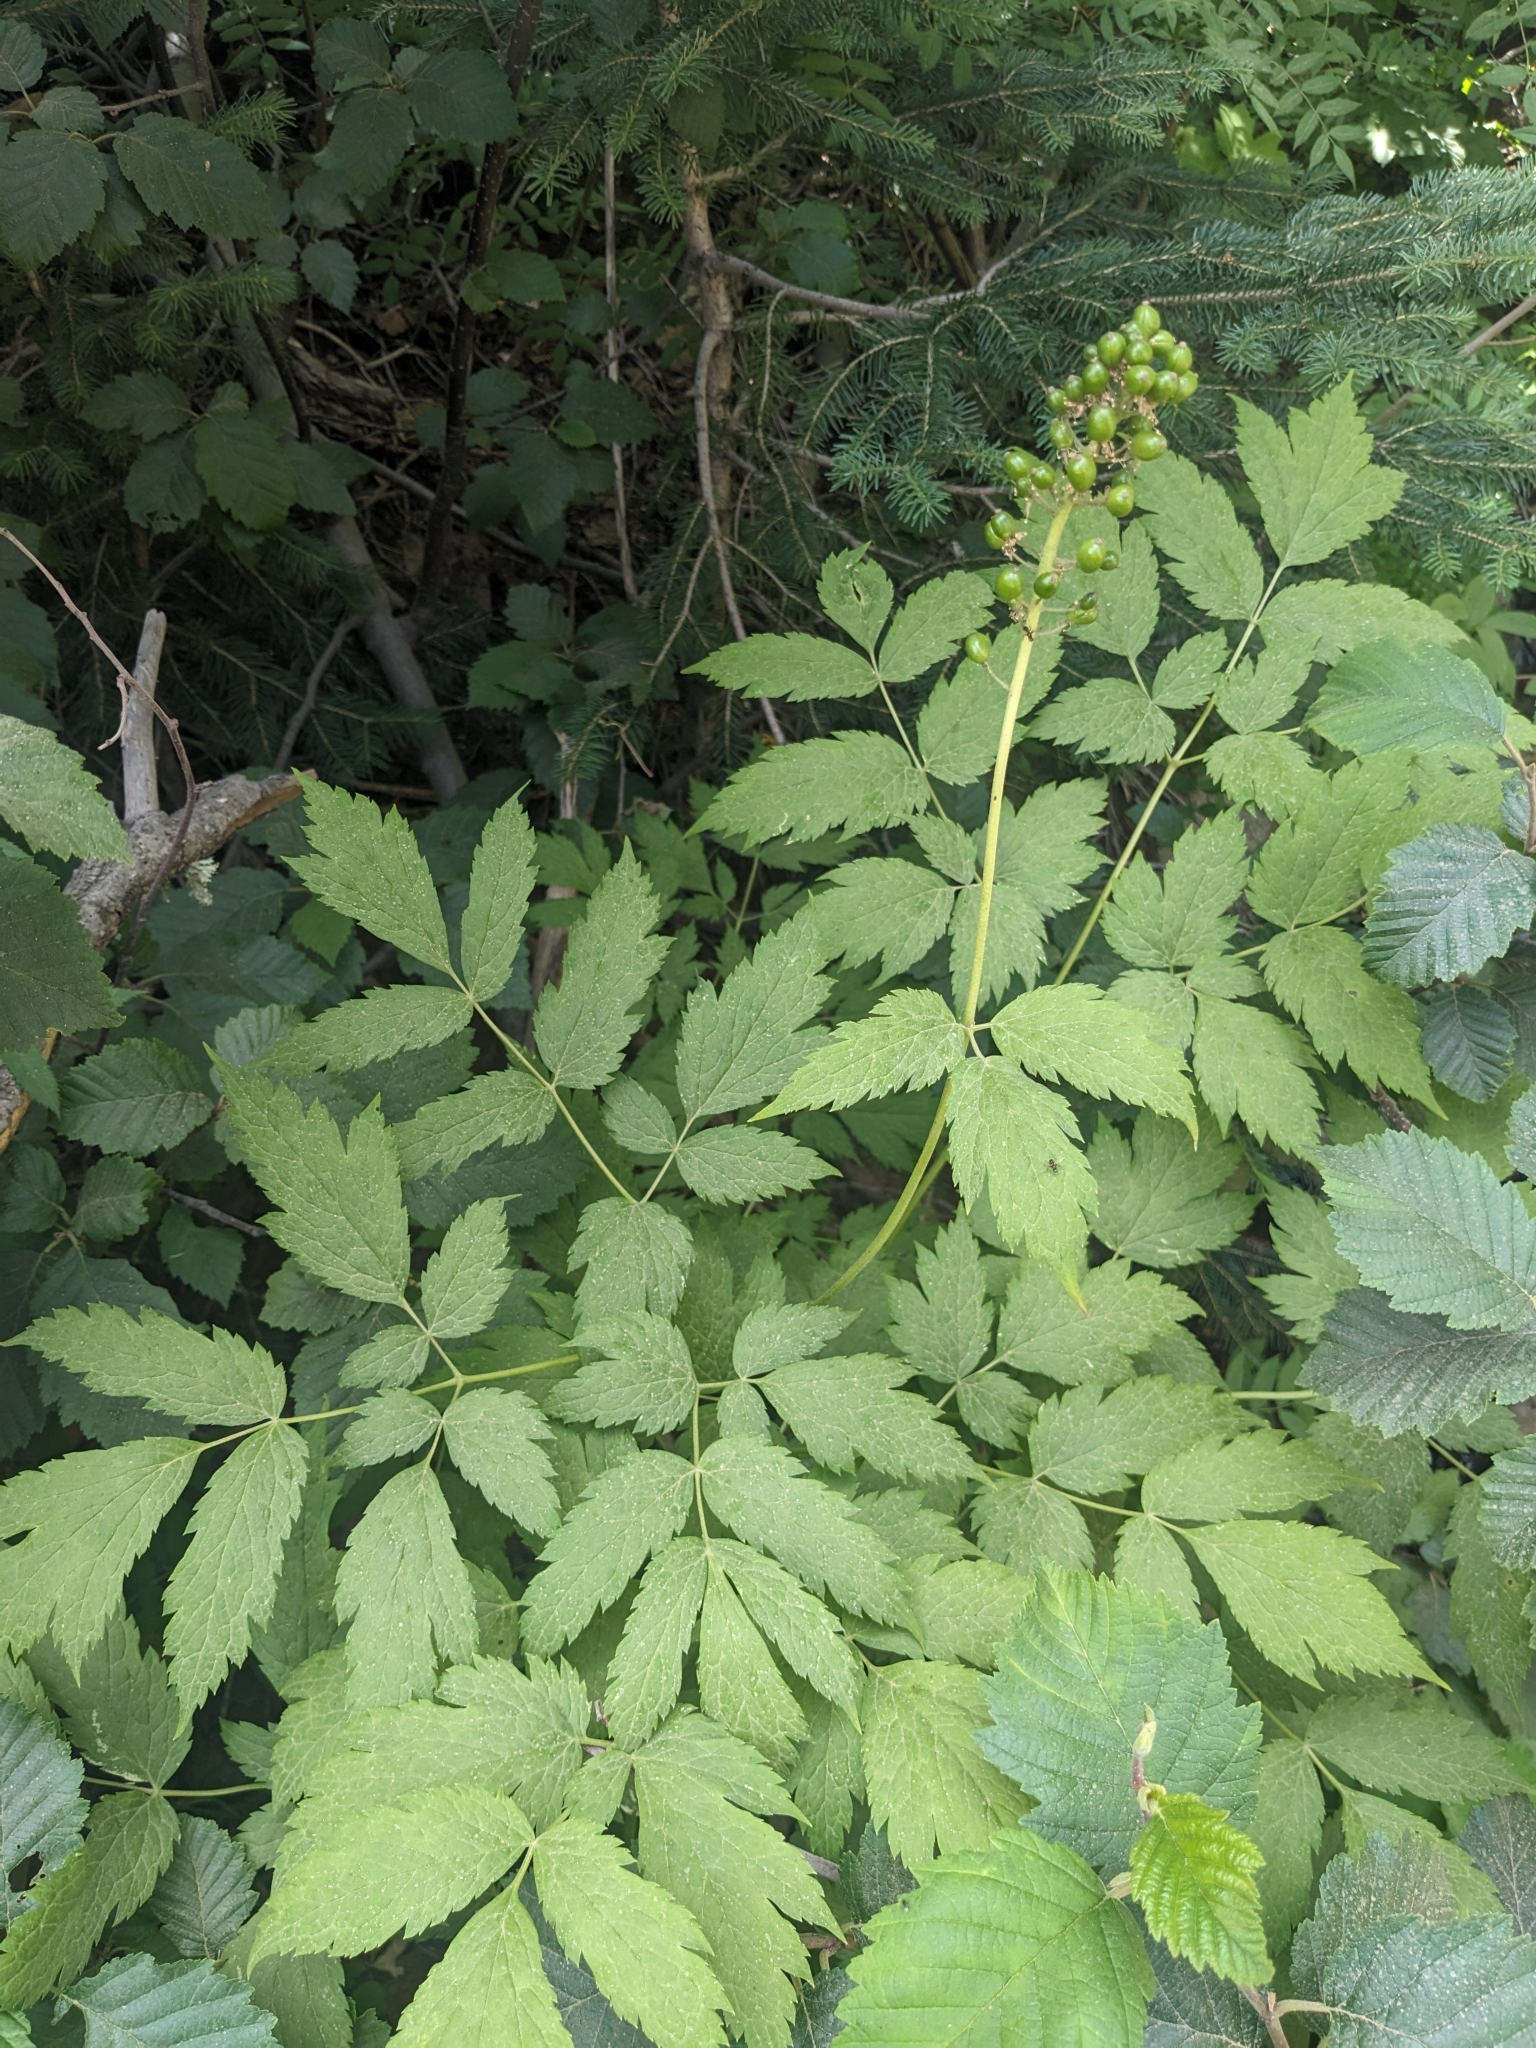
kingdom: Plantae
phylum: Tracheophyta
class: Magnoliopsida
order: Ranunculales
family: Ranunculaceae
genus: Actaea
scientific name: Actaea rubra
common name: Red baneberry
